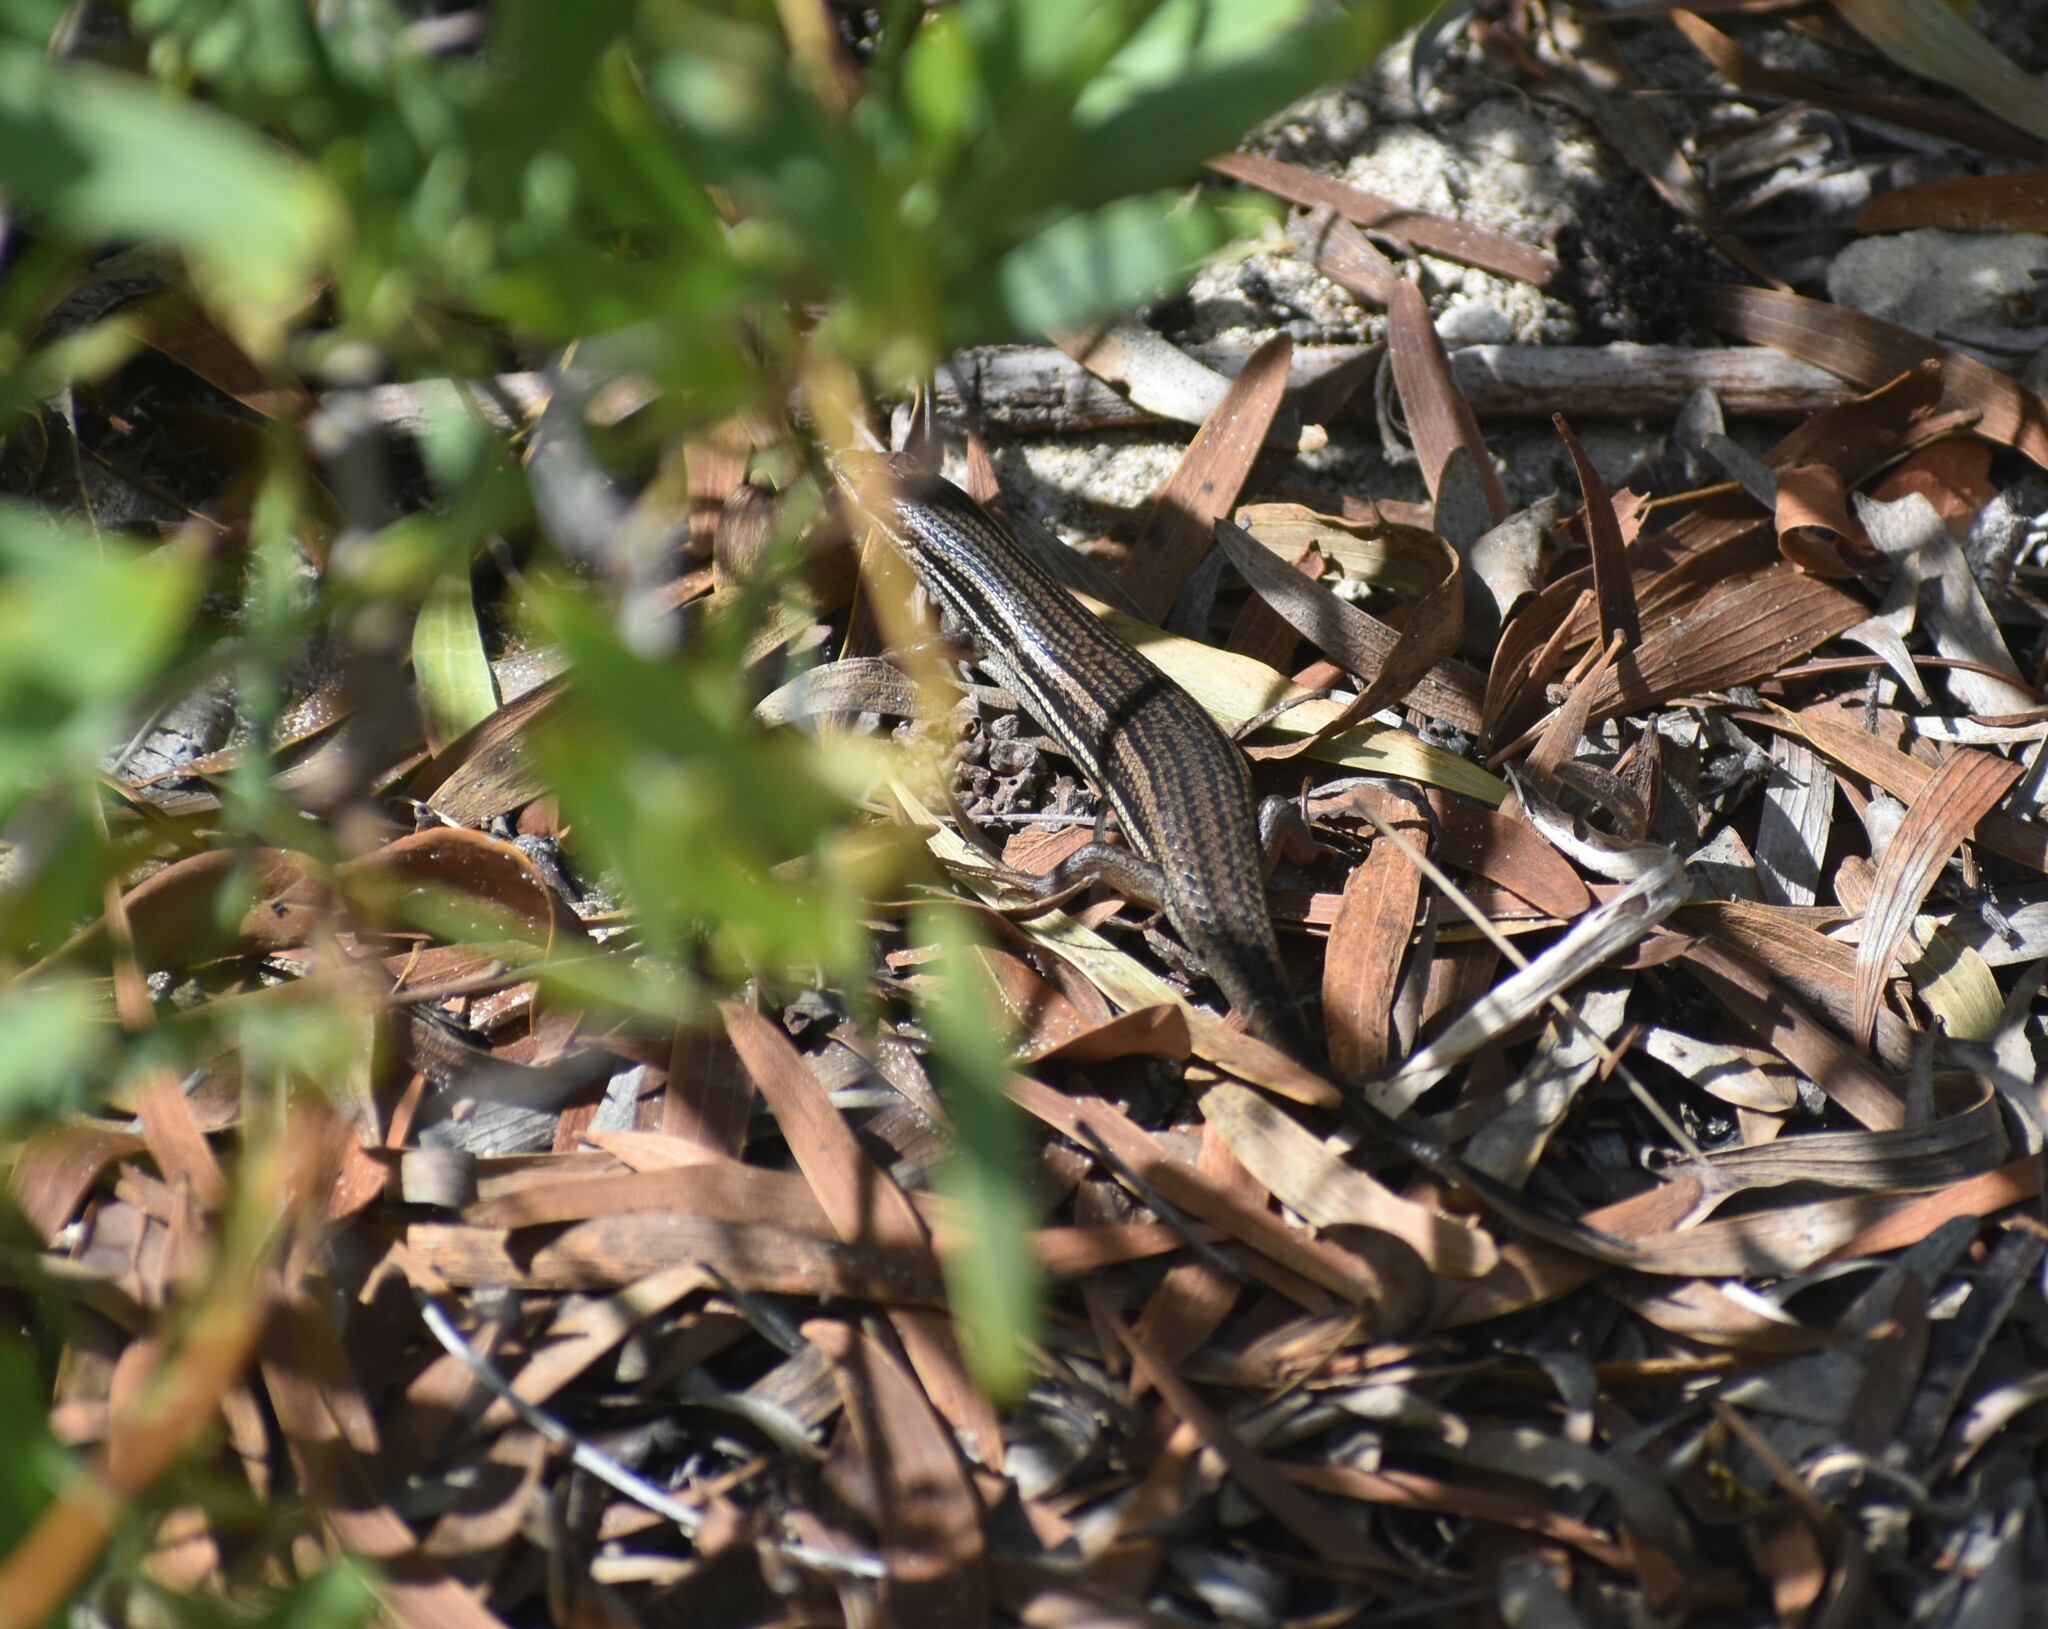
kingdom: Animalia
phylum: Chordata
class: Squamata
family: Scincidae
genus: Trachylepis
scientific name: Trachylepis homalocephala
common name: Red-sided skink
